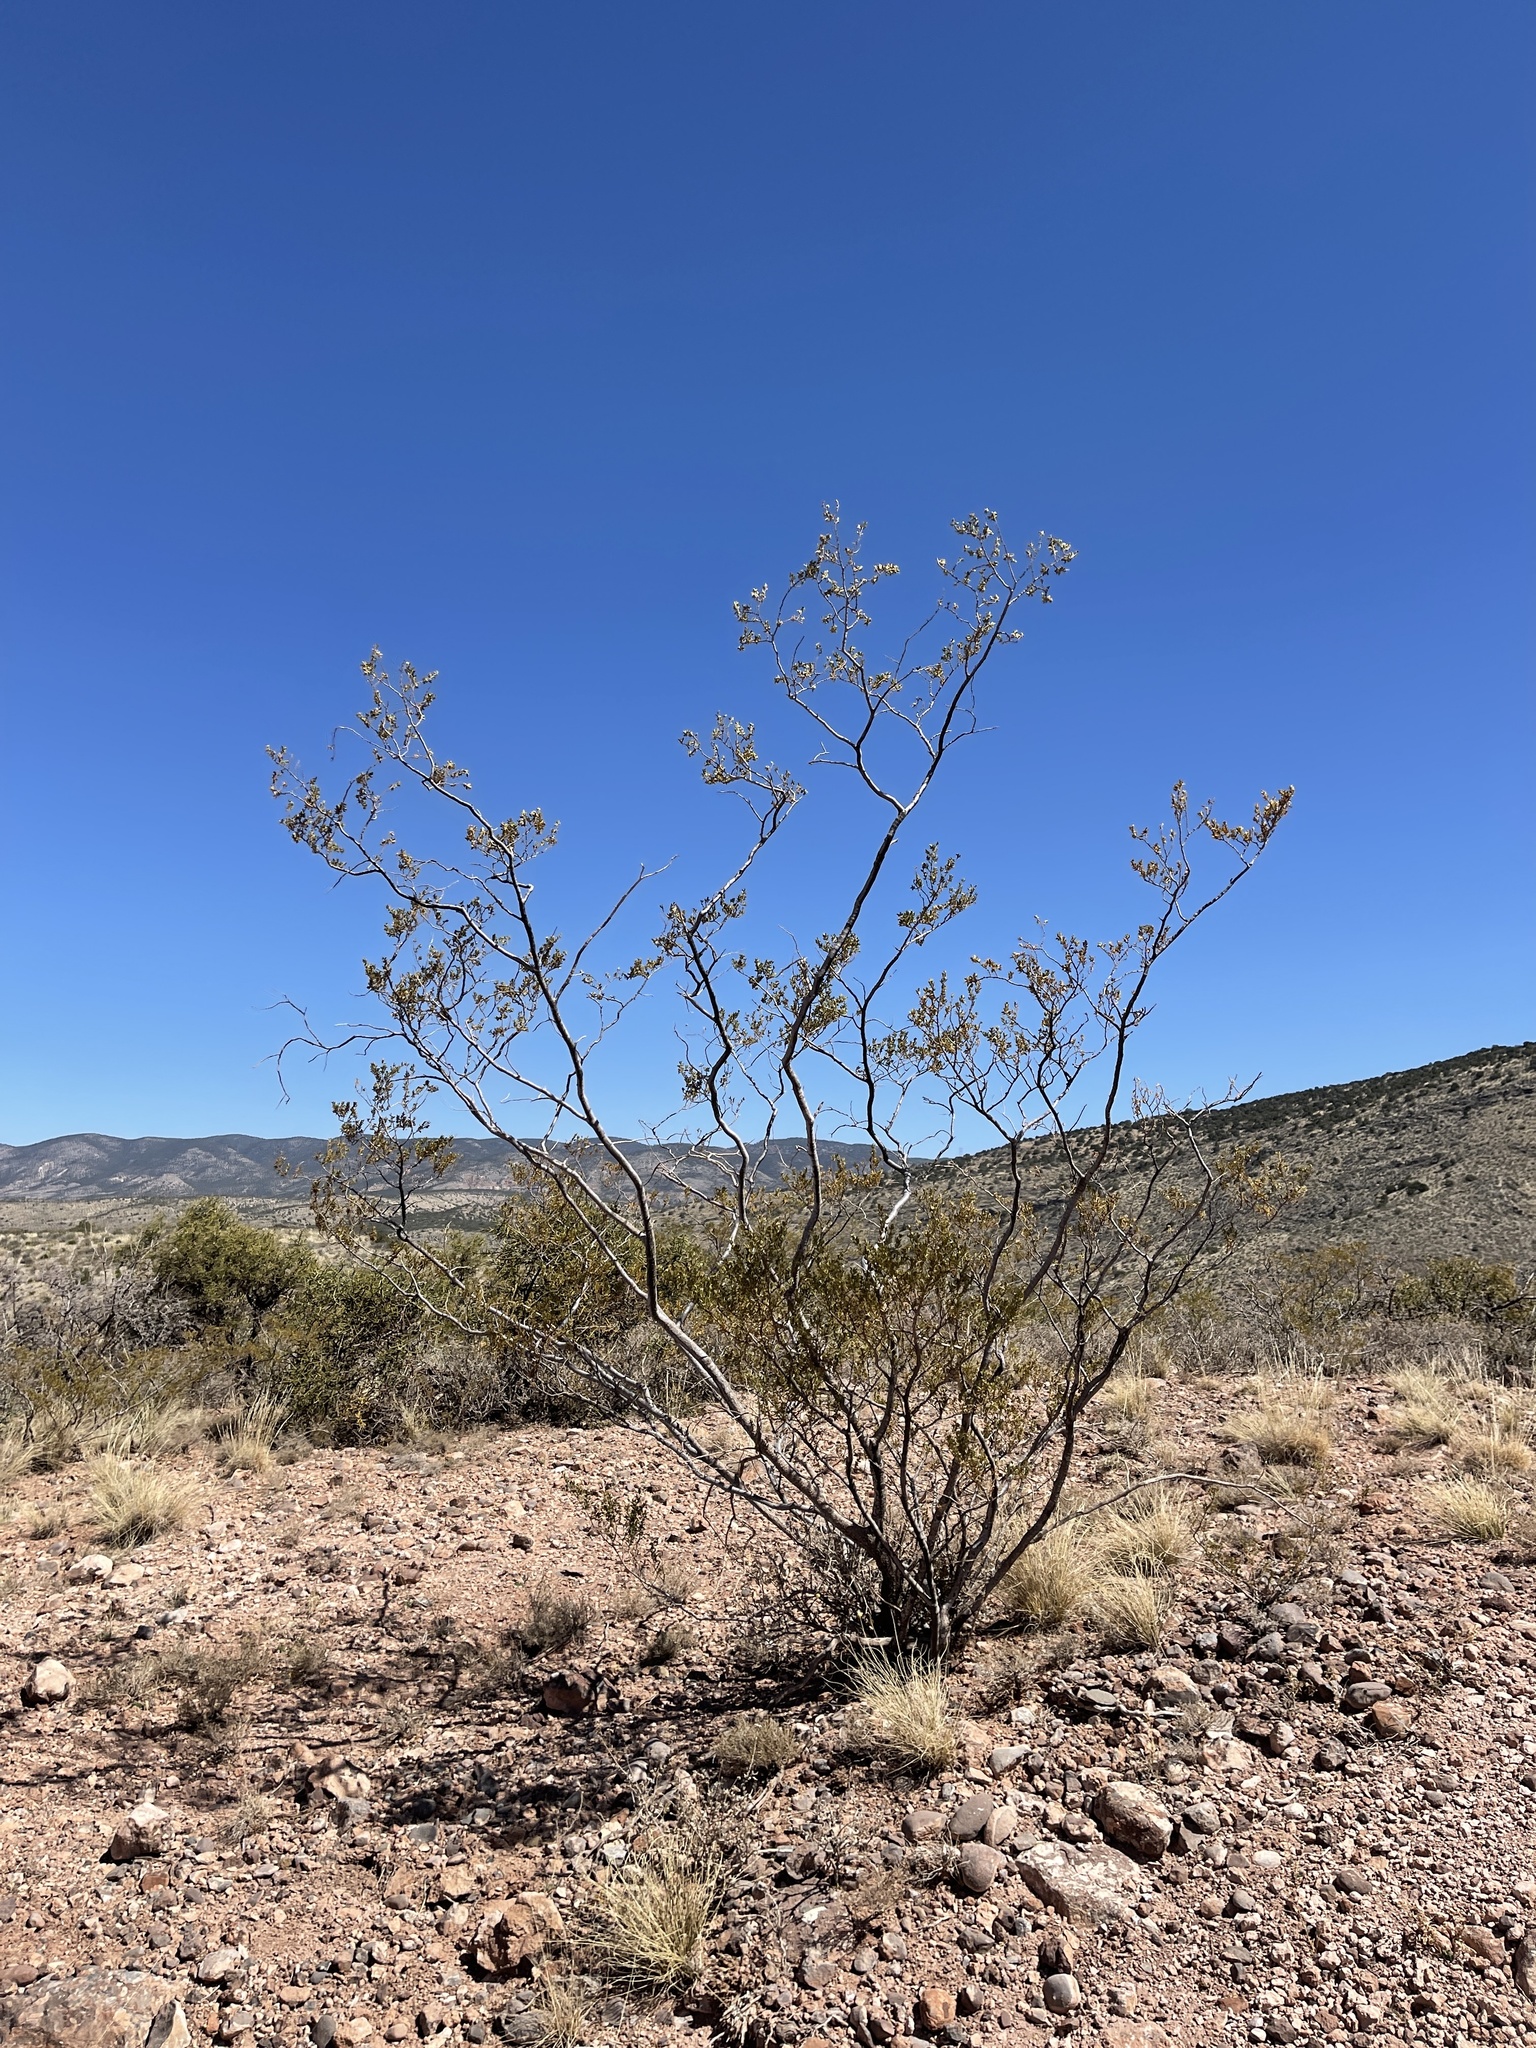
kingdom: Plantae
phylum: Tracheophyta
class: Magnoliopsida
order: Zygophyllales
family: Zygophyllaceae
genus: Larrea
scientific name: Larrea tridentata
